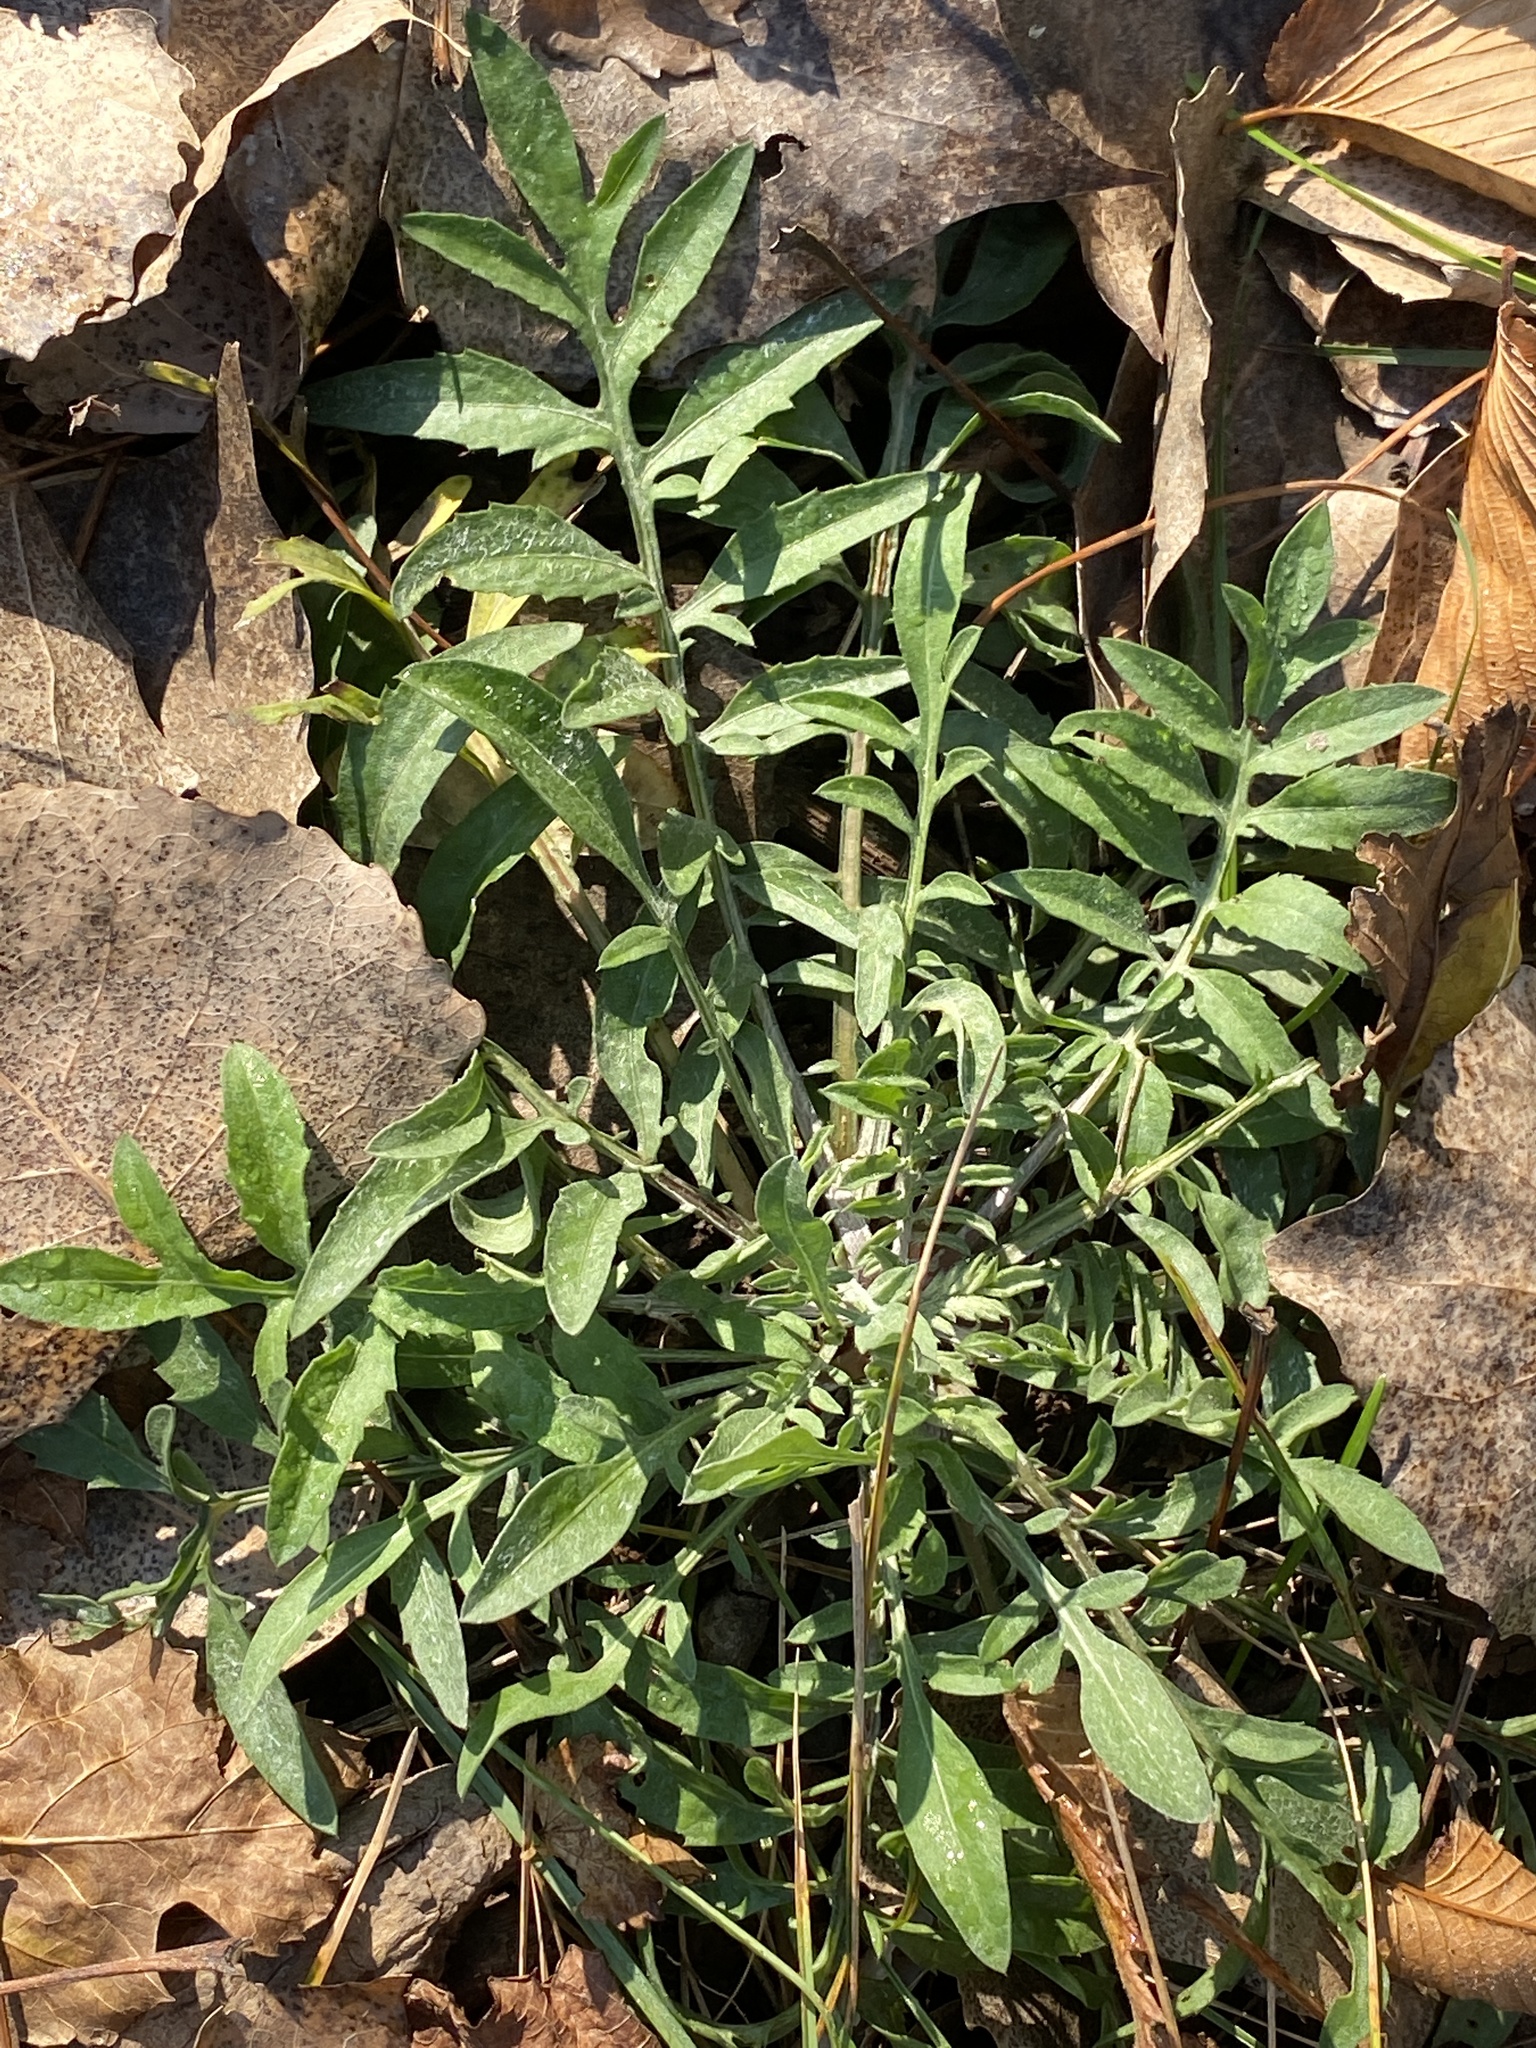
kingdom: Plantae
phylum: Tracheophyta
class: Magnoliopsida
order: Asterales
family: Asteraceae
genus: Centaurea
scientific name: Centaurea stoebe
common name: Spotted knapweed
